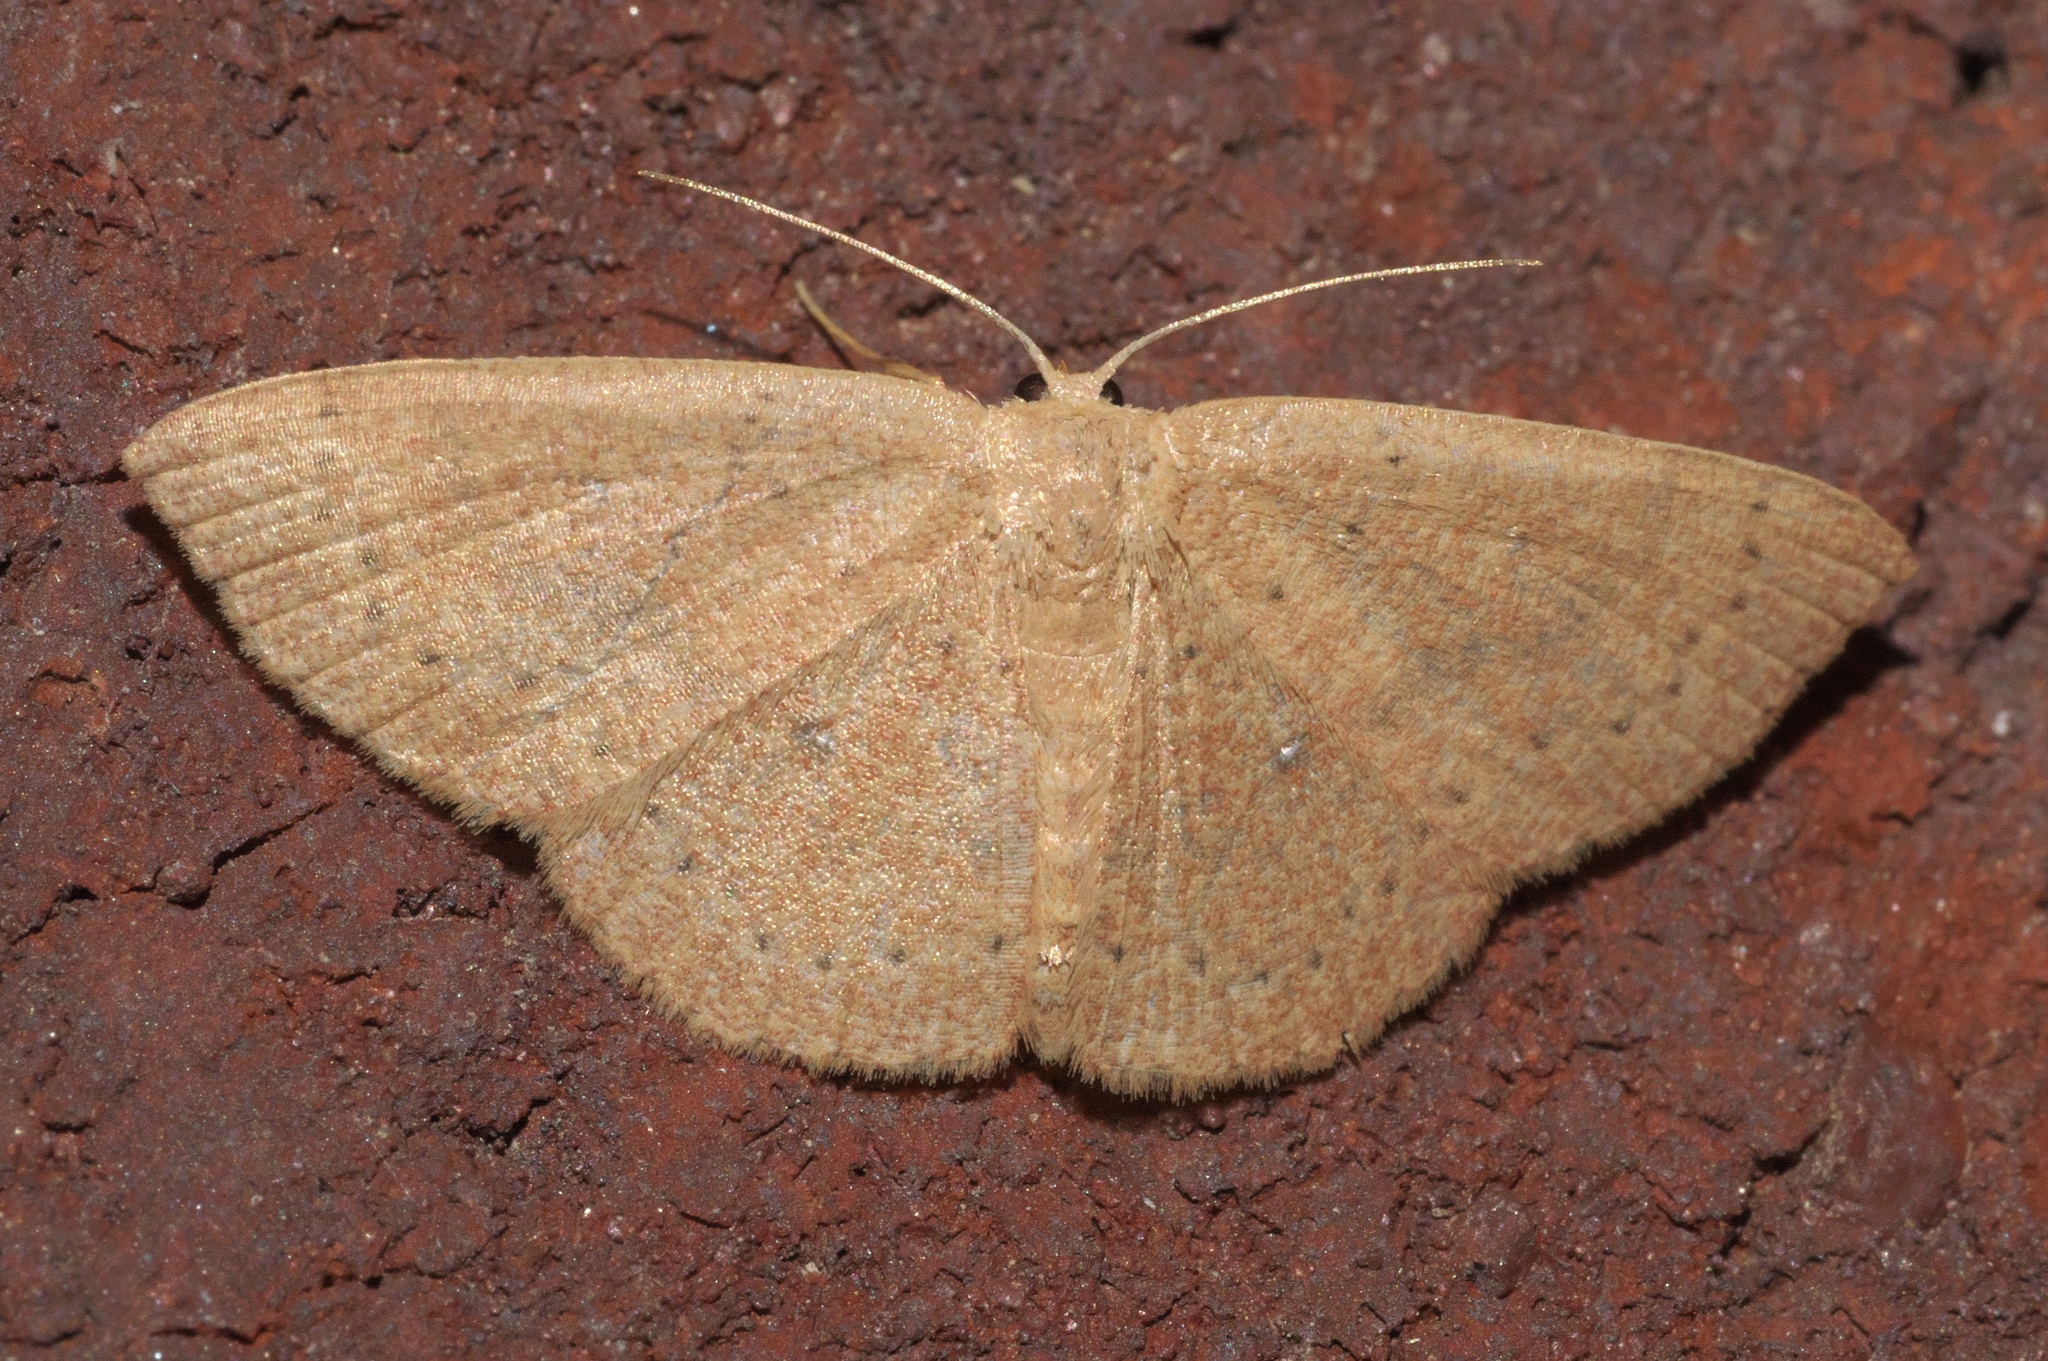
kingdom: Animalia
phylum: Arthropoda
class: Insecta
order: Lepidoptera
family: Geometridae
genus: Cyclophora
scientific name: Cyclophora packardi
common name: Packard's wave
